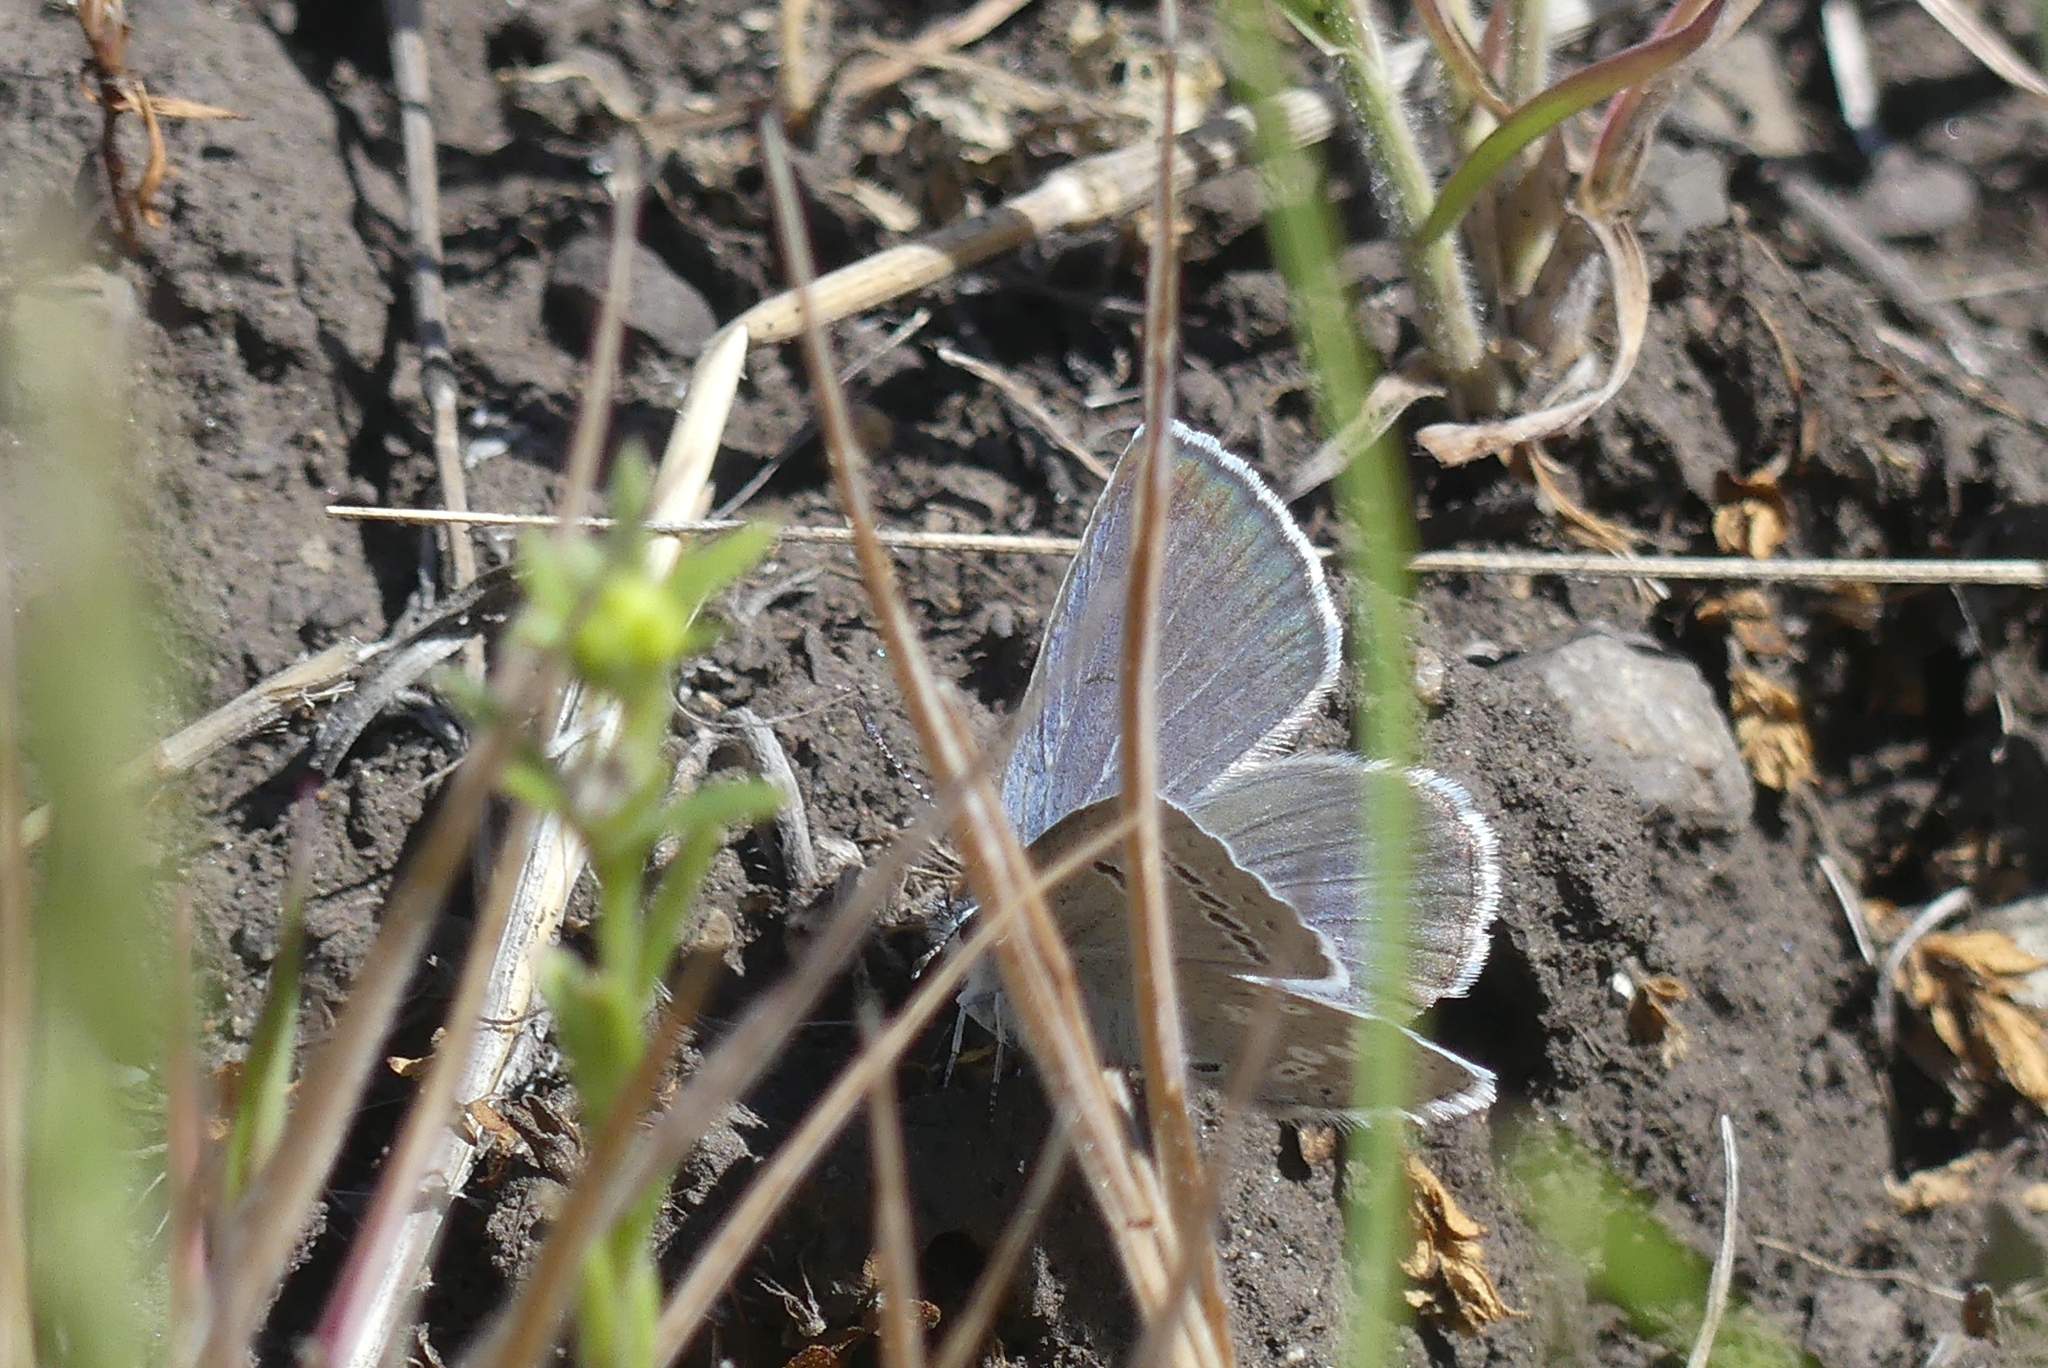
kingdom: Animalia
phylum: Arthropoda
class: Insecta
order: Lepidoptera
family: Lycaenidae
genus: Icaricia
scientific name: Icaricia icarioides
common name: Boisduval's blue
